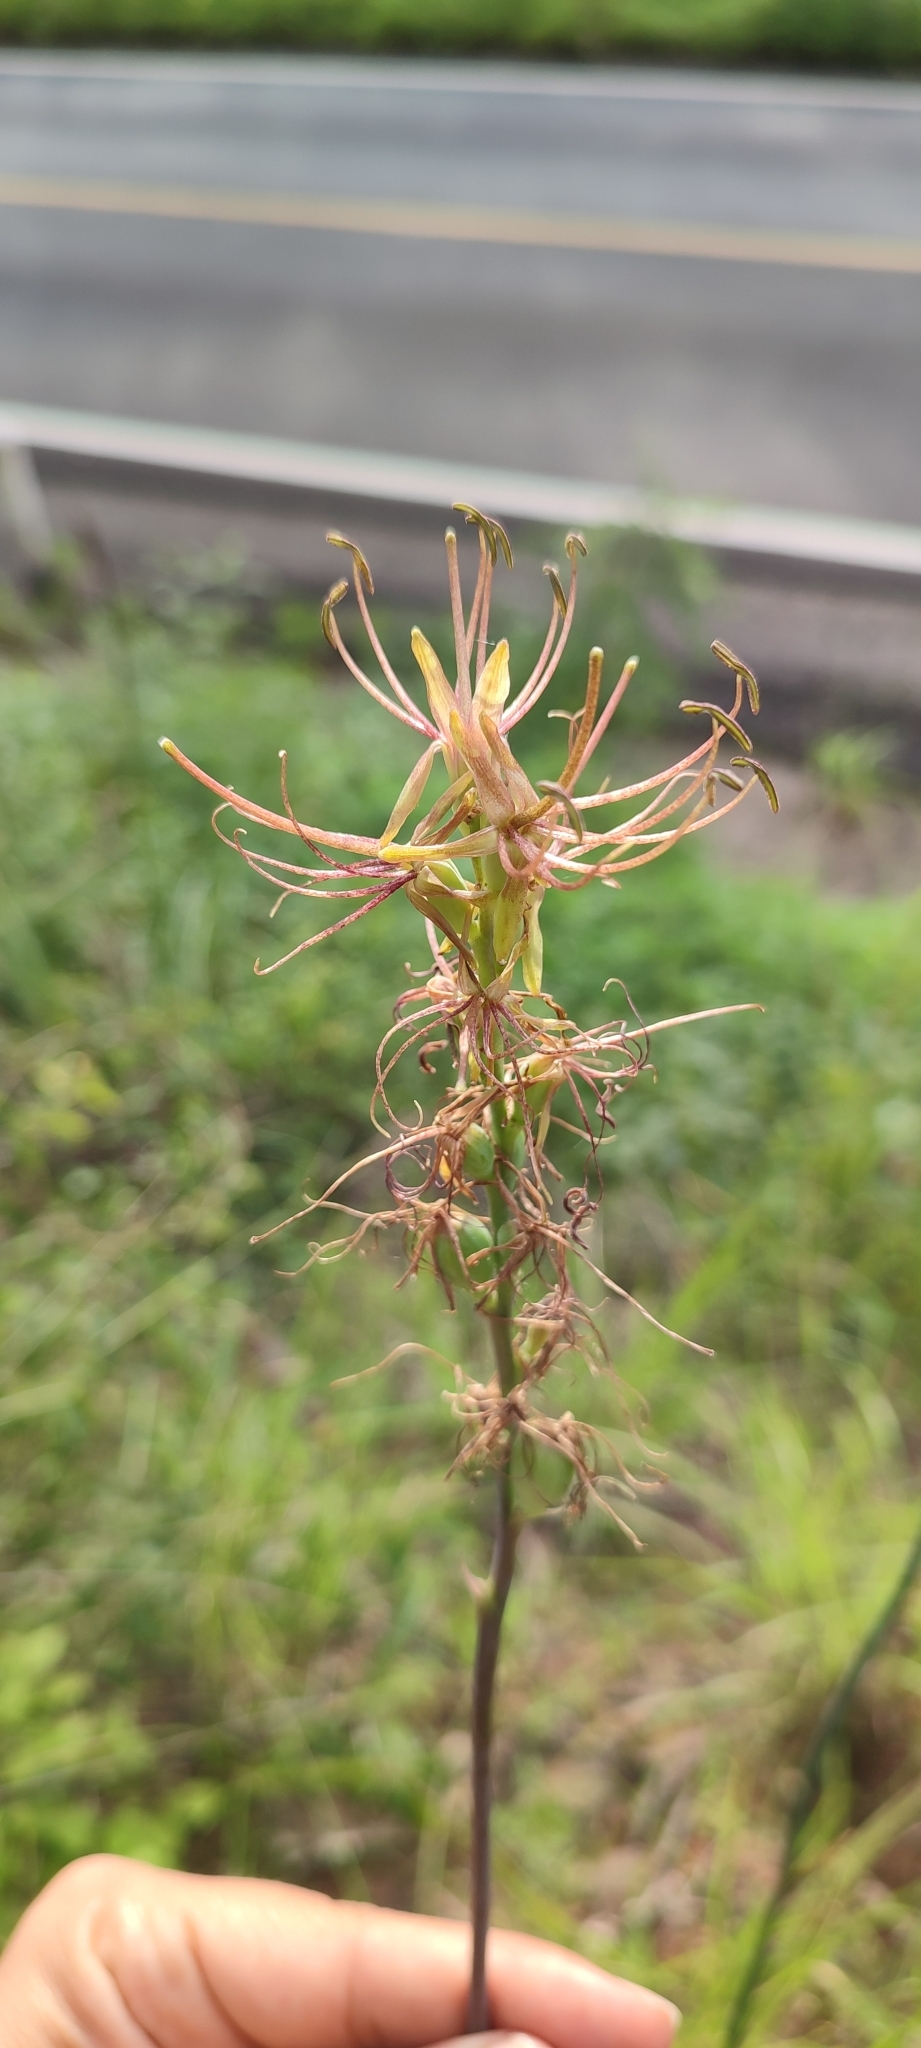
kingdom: Plantae
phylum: Tracheophyta
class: Liliopsida
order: Asparagales
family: Asparagaceae
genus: Agave
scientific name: Agave occidentalis
